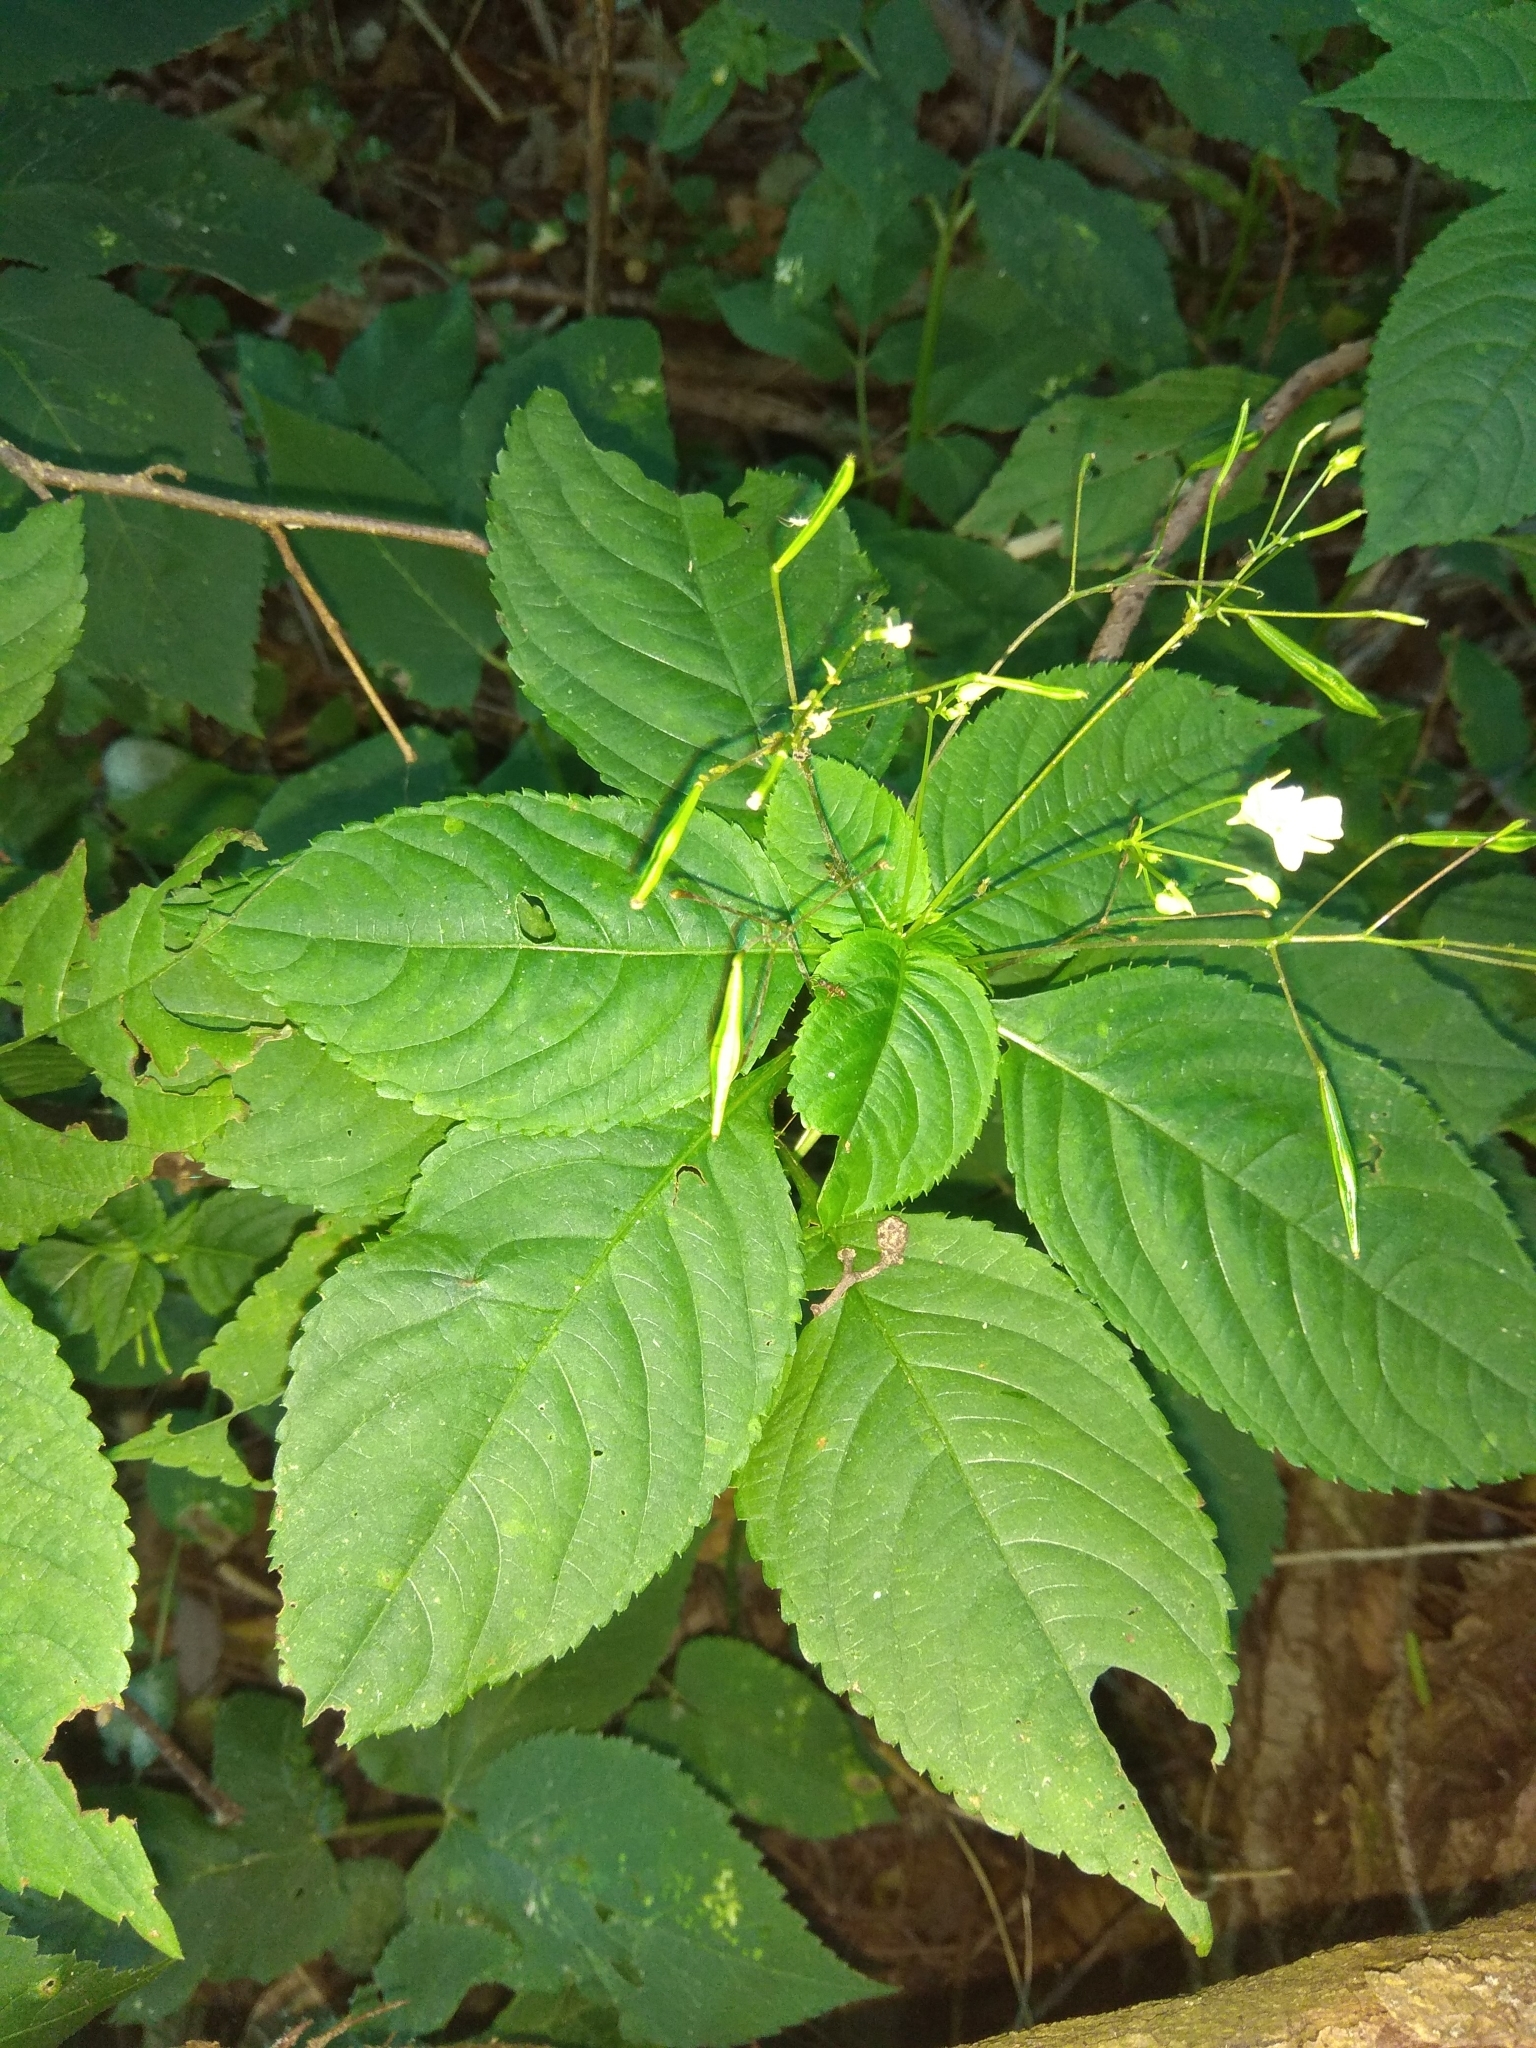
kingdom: Plantae
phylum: Tracheophyta
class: Magnoliopsida
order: Ericales
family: Balsaminaceae
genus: Impatiens
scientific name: Impatiens parviflora
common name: Small balsam
